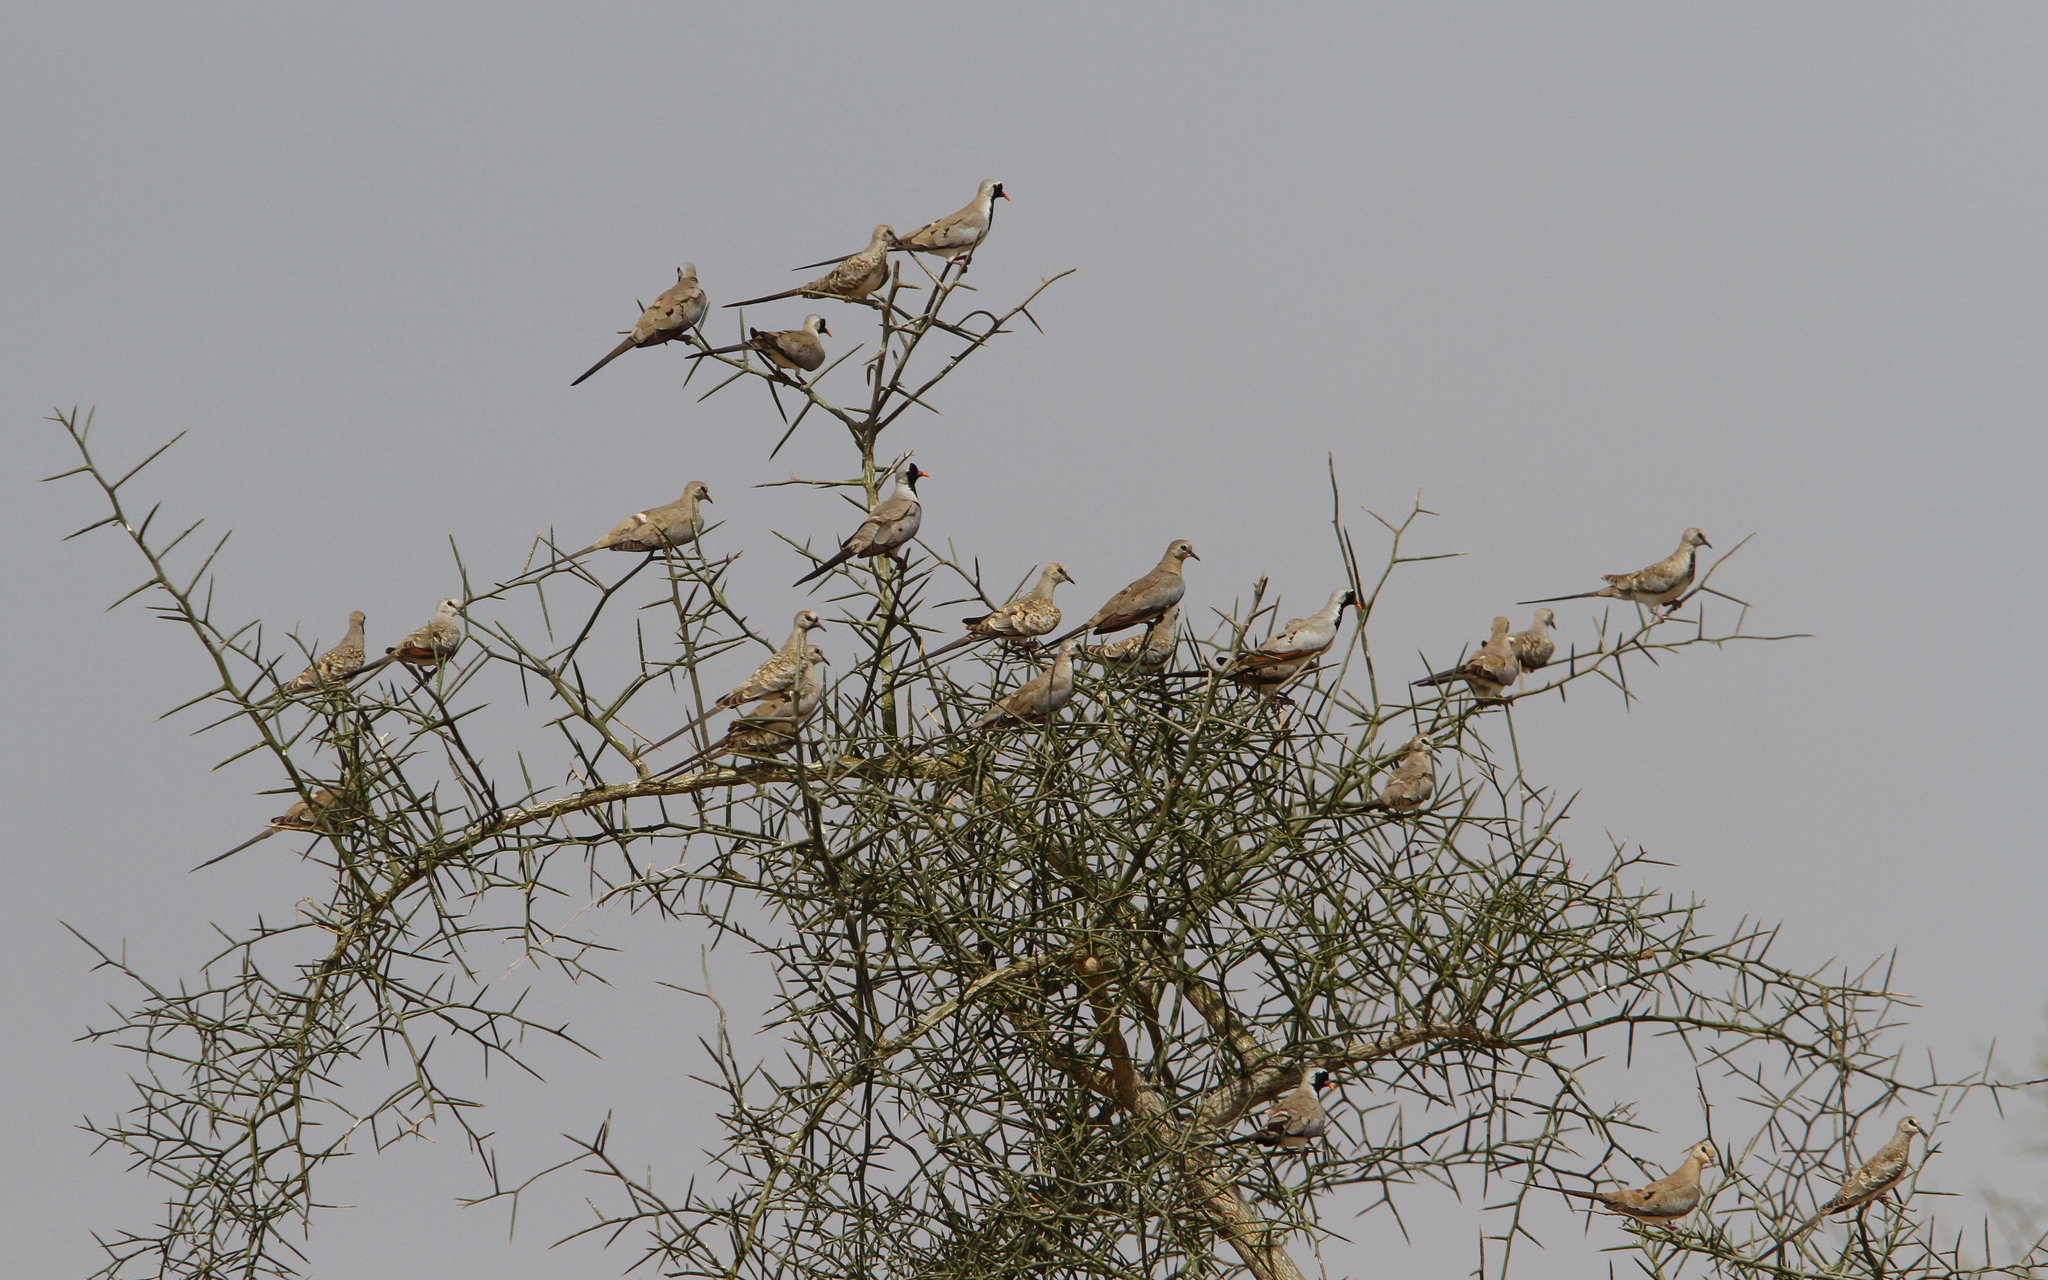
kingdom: Animalia
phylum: Chordata
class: Aves
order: Columbiformes
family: Columbidae
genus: Oena
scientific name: Oena capensis
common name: Namaqua dove
